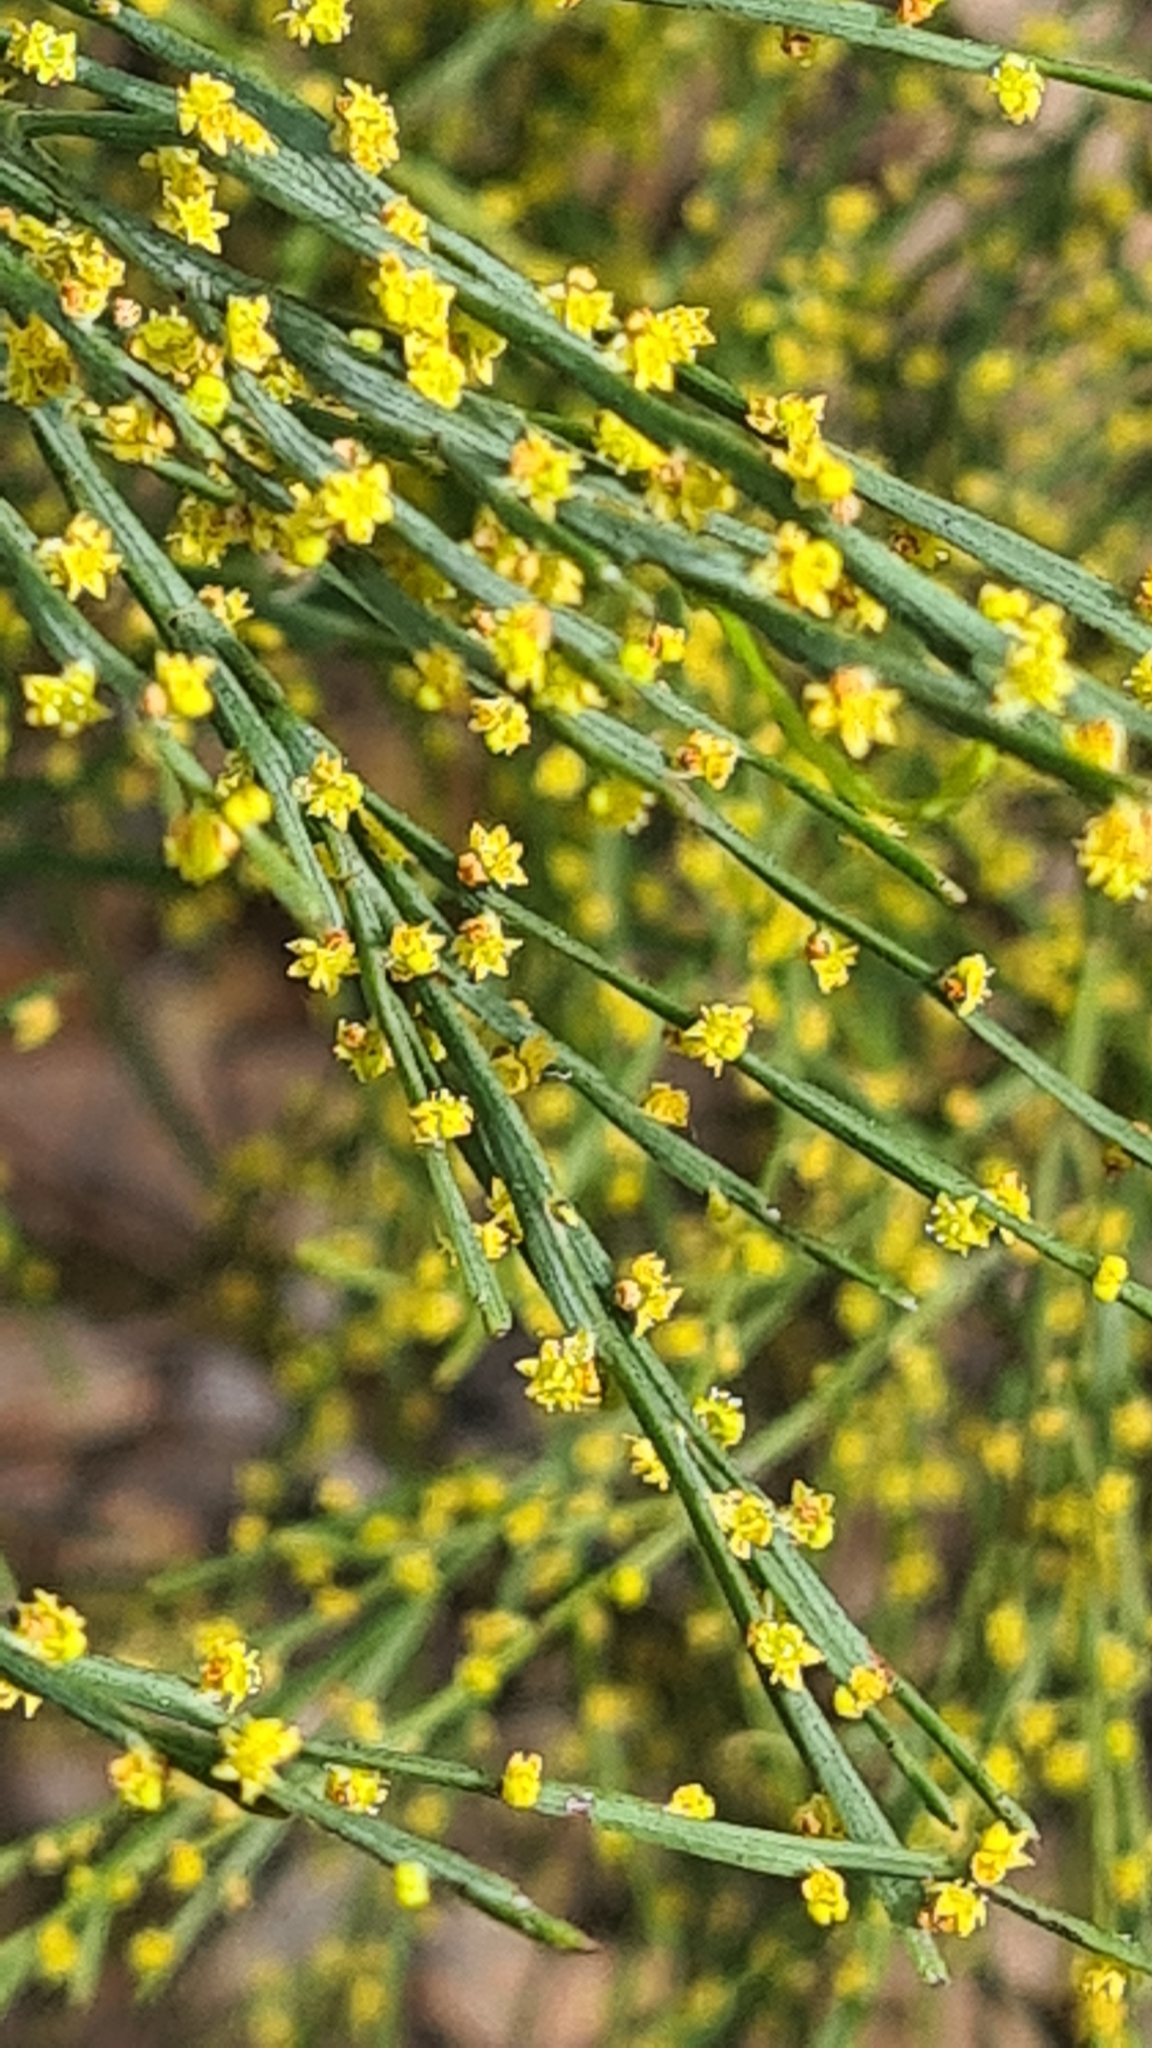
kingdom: Plantae
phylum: Tracheophyta
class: Magnoliopsida
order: Santalales
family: Santalaceae
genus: Exocarpos
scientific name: Exocarpos strictus
